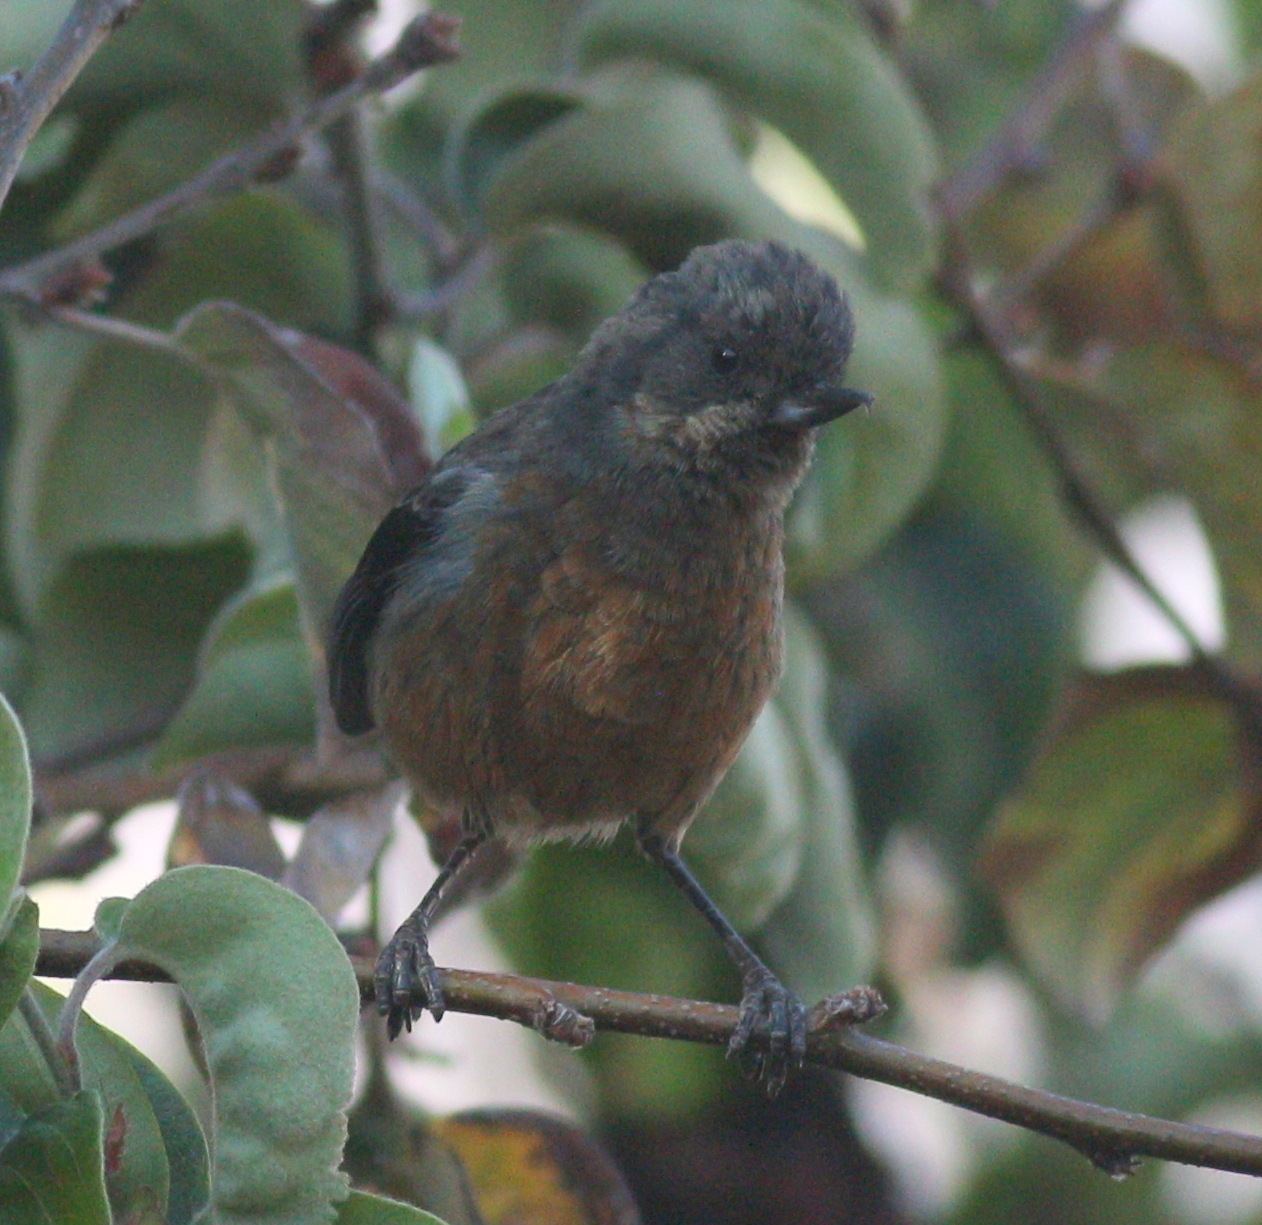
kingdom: Animalia
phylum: Chordata
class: Aves
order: Passeriformes
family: Thraupidae
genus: Diglossa
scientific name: Diglossa brunneiventris
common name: Black-throated flowerpiercer
